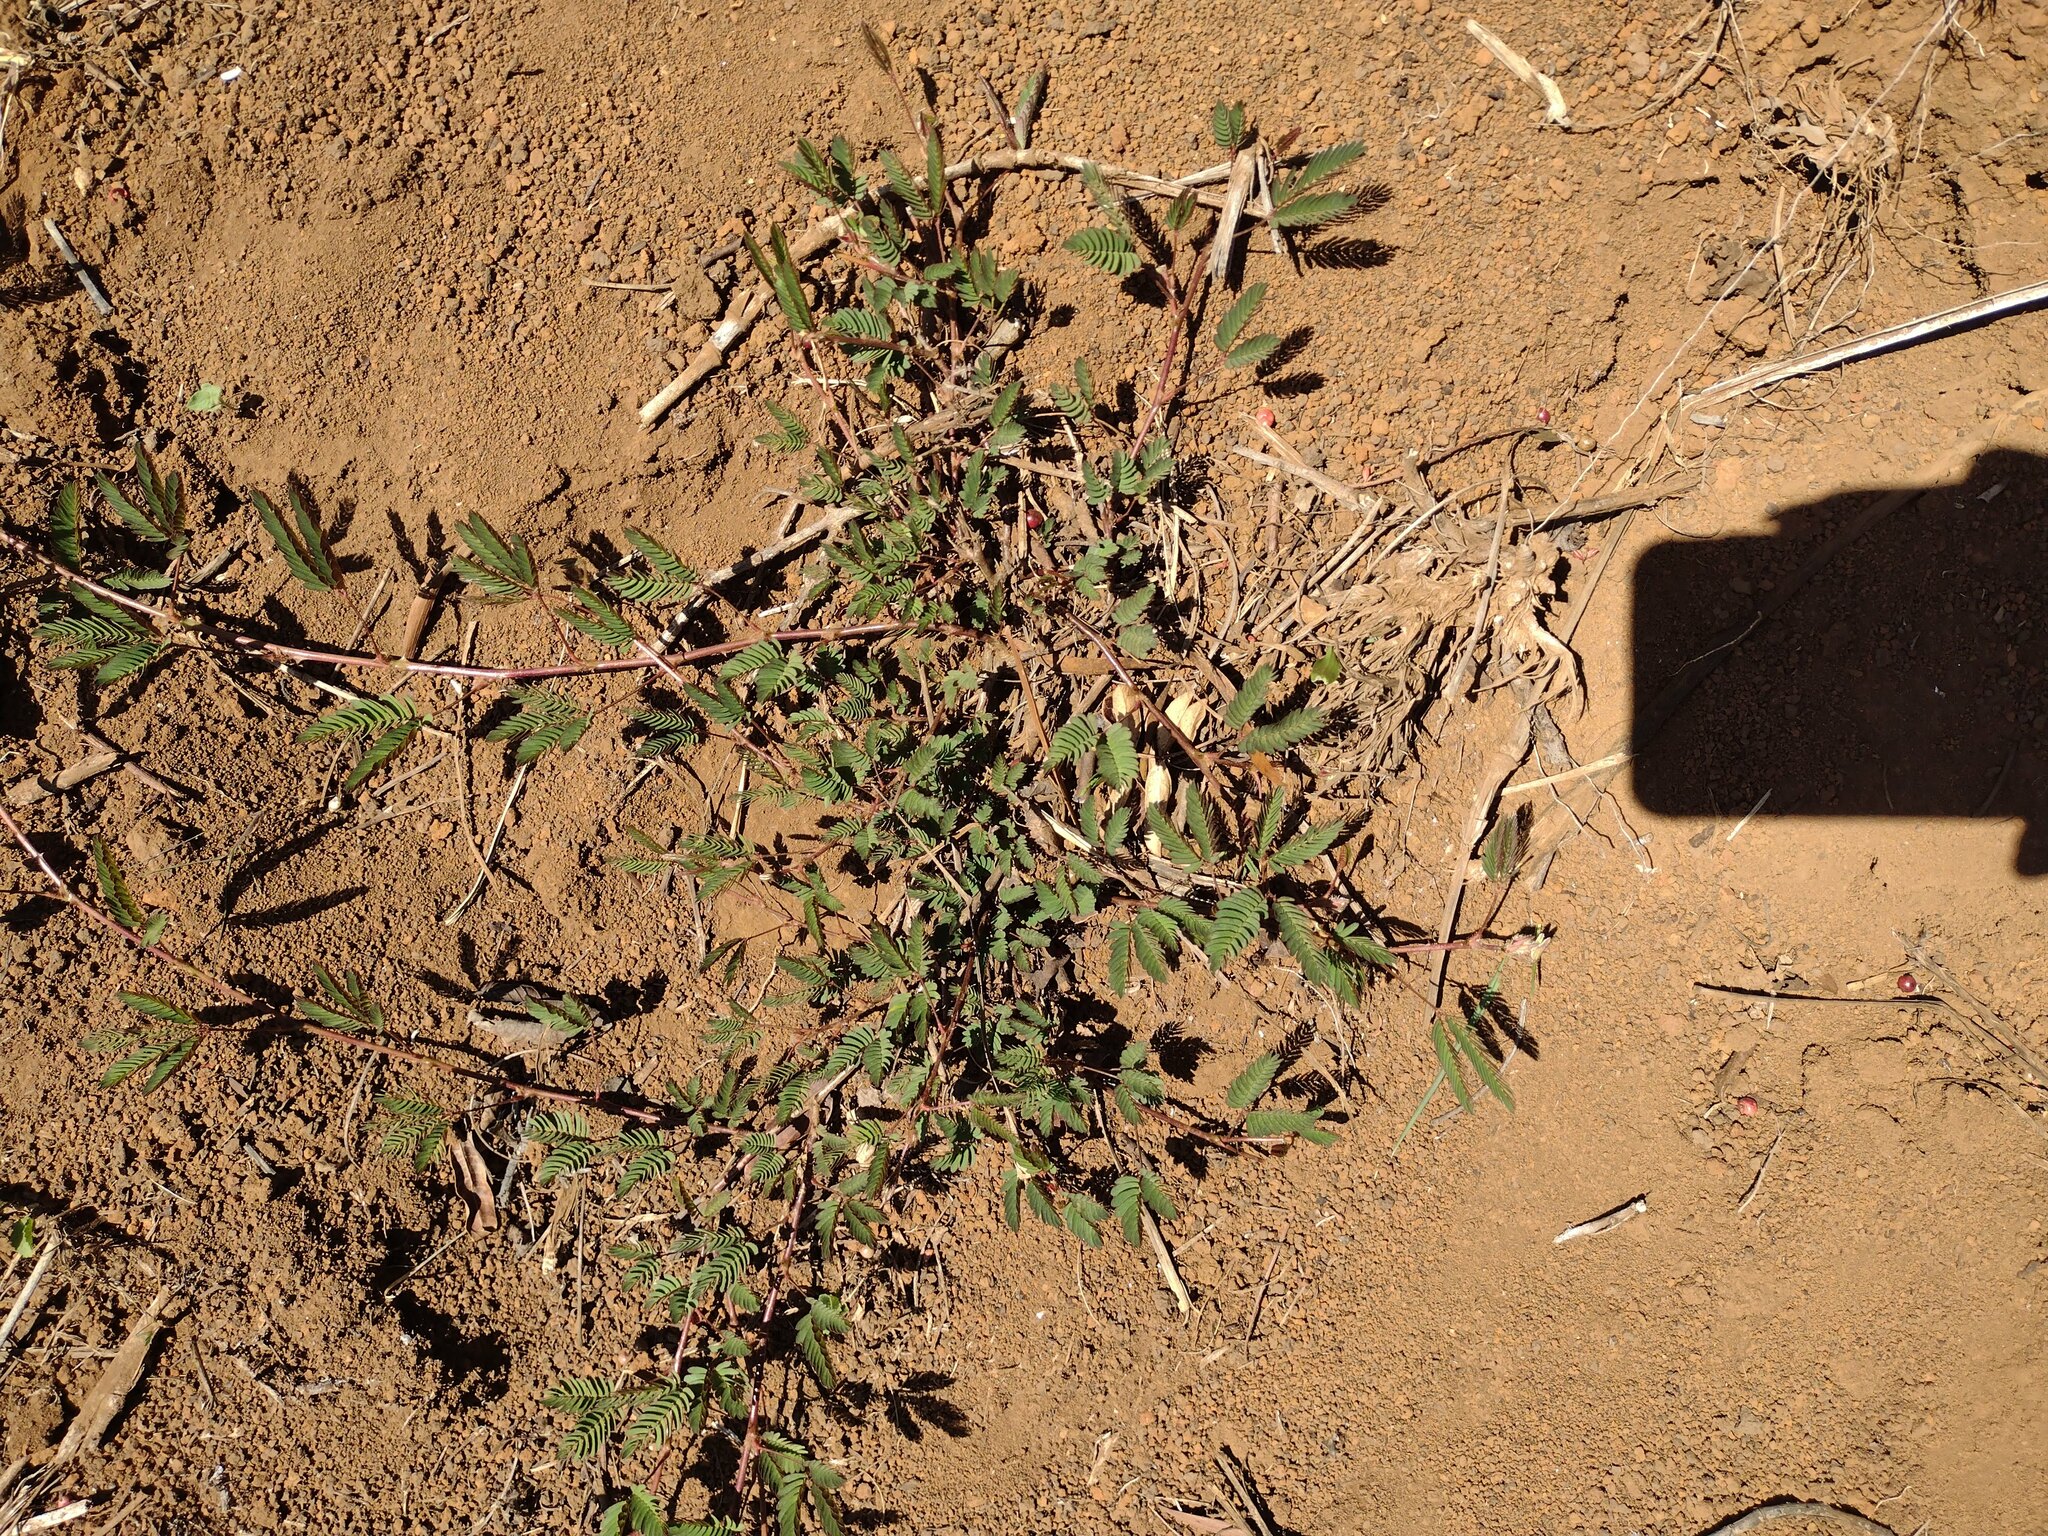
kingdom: Plantae
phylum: Tracheophyta
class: Magnoliopsida
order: Fabales
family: Fabaceae
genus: Mimosa
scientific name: Mimosa pudica
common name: Sensitive plant
